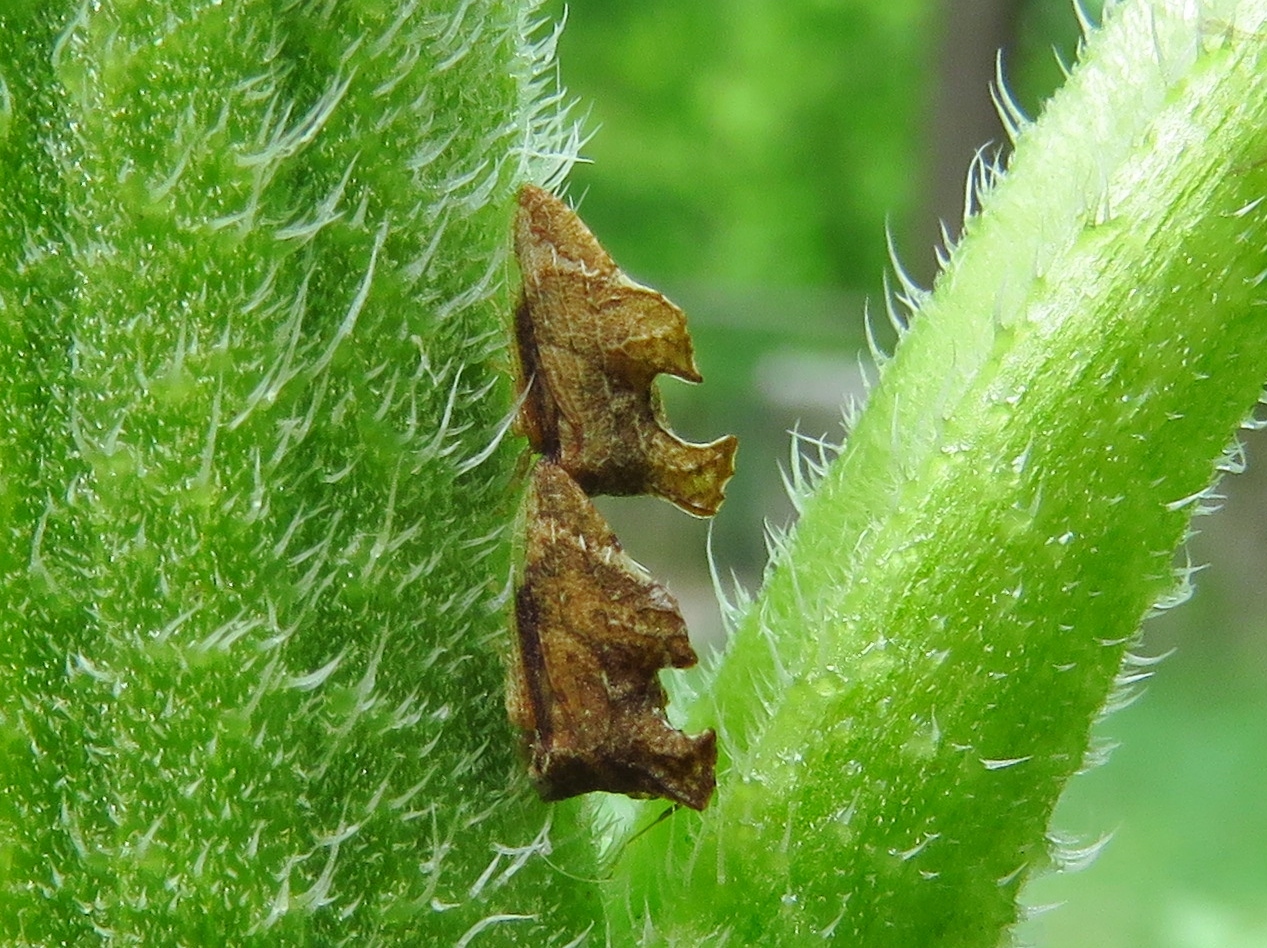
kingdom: Animalia
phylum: Arthropoda
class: Insecta
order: Hemiptera
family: Membracidae
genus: Entylia
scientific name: Entylia carinata
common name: Keeled treehopper
